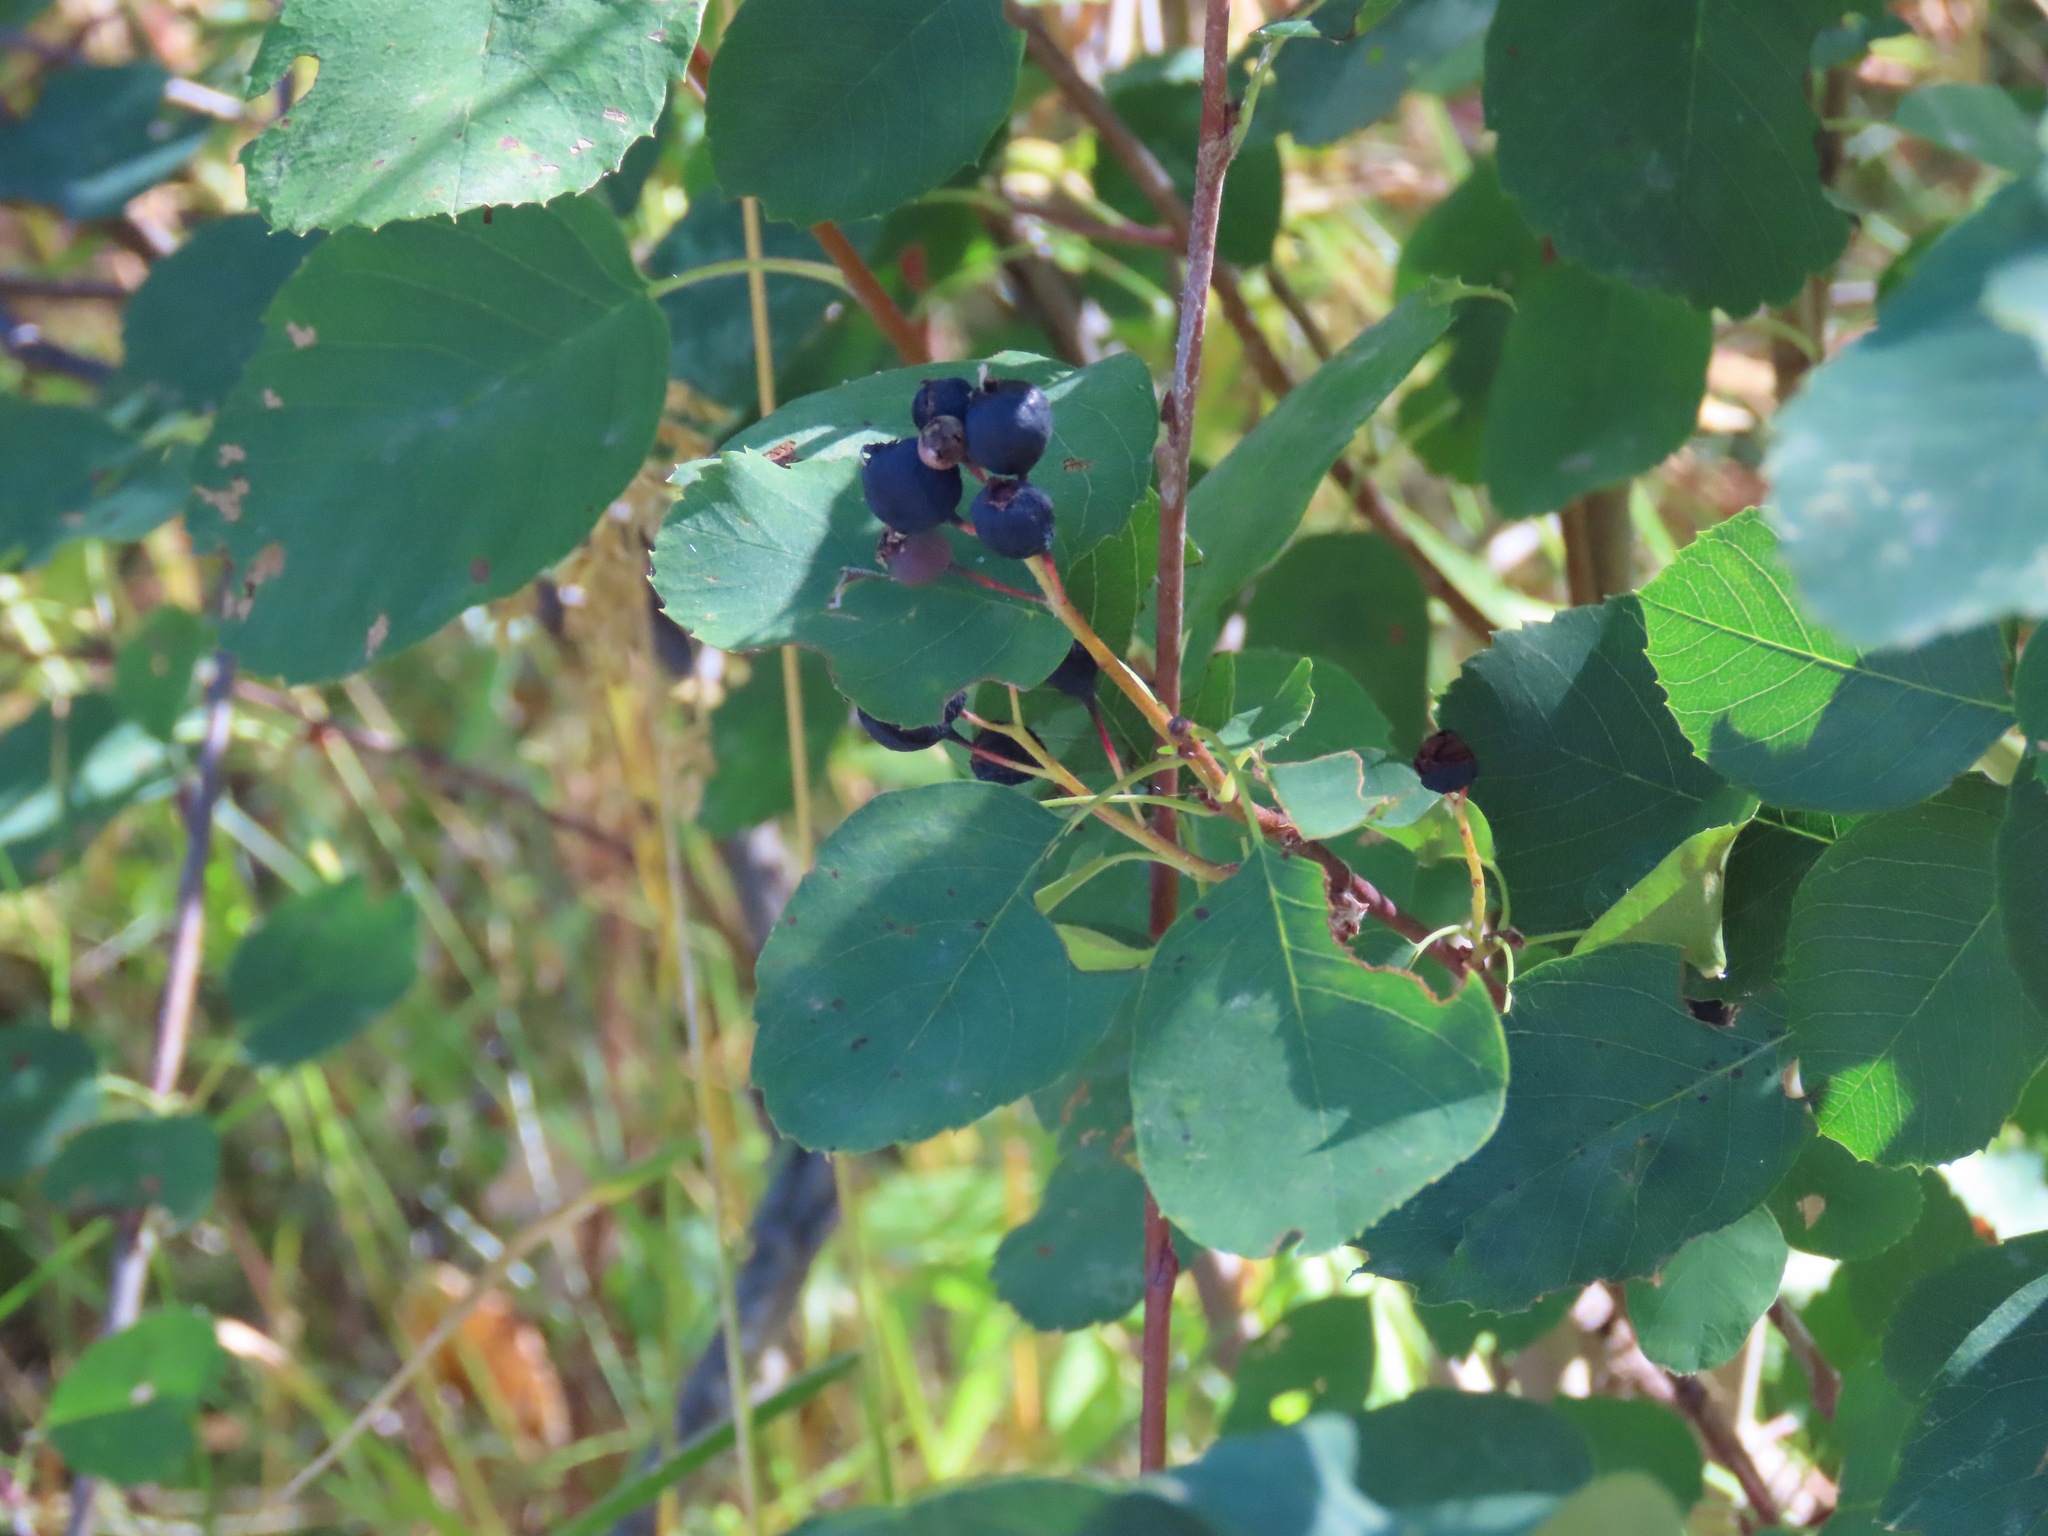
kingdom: Plantae
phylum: Tracheophyta
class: Magnoliopsida
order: Rosales
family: Rosaceae
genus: Amelanchier
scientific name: Amelanchier alnifolia
